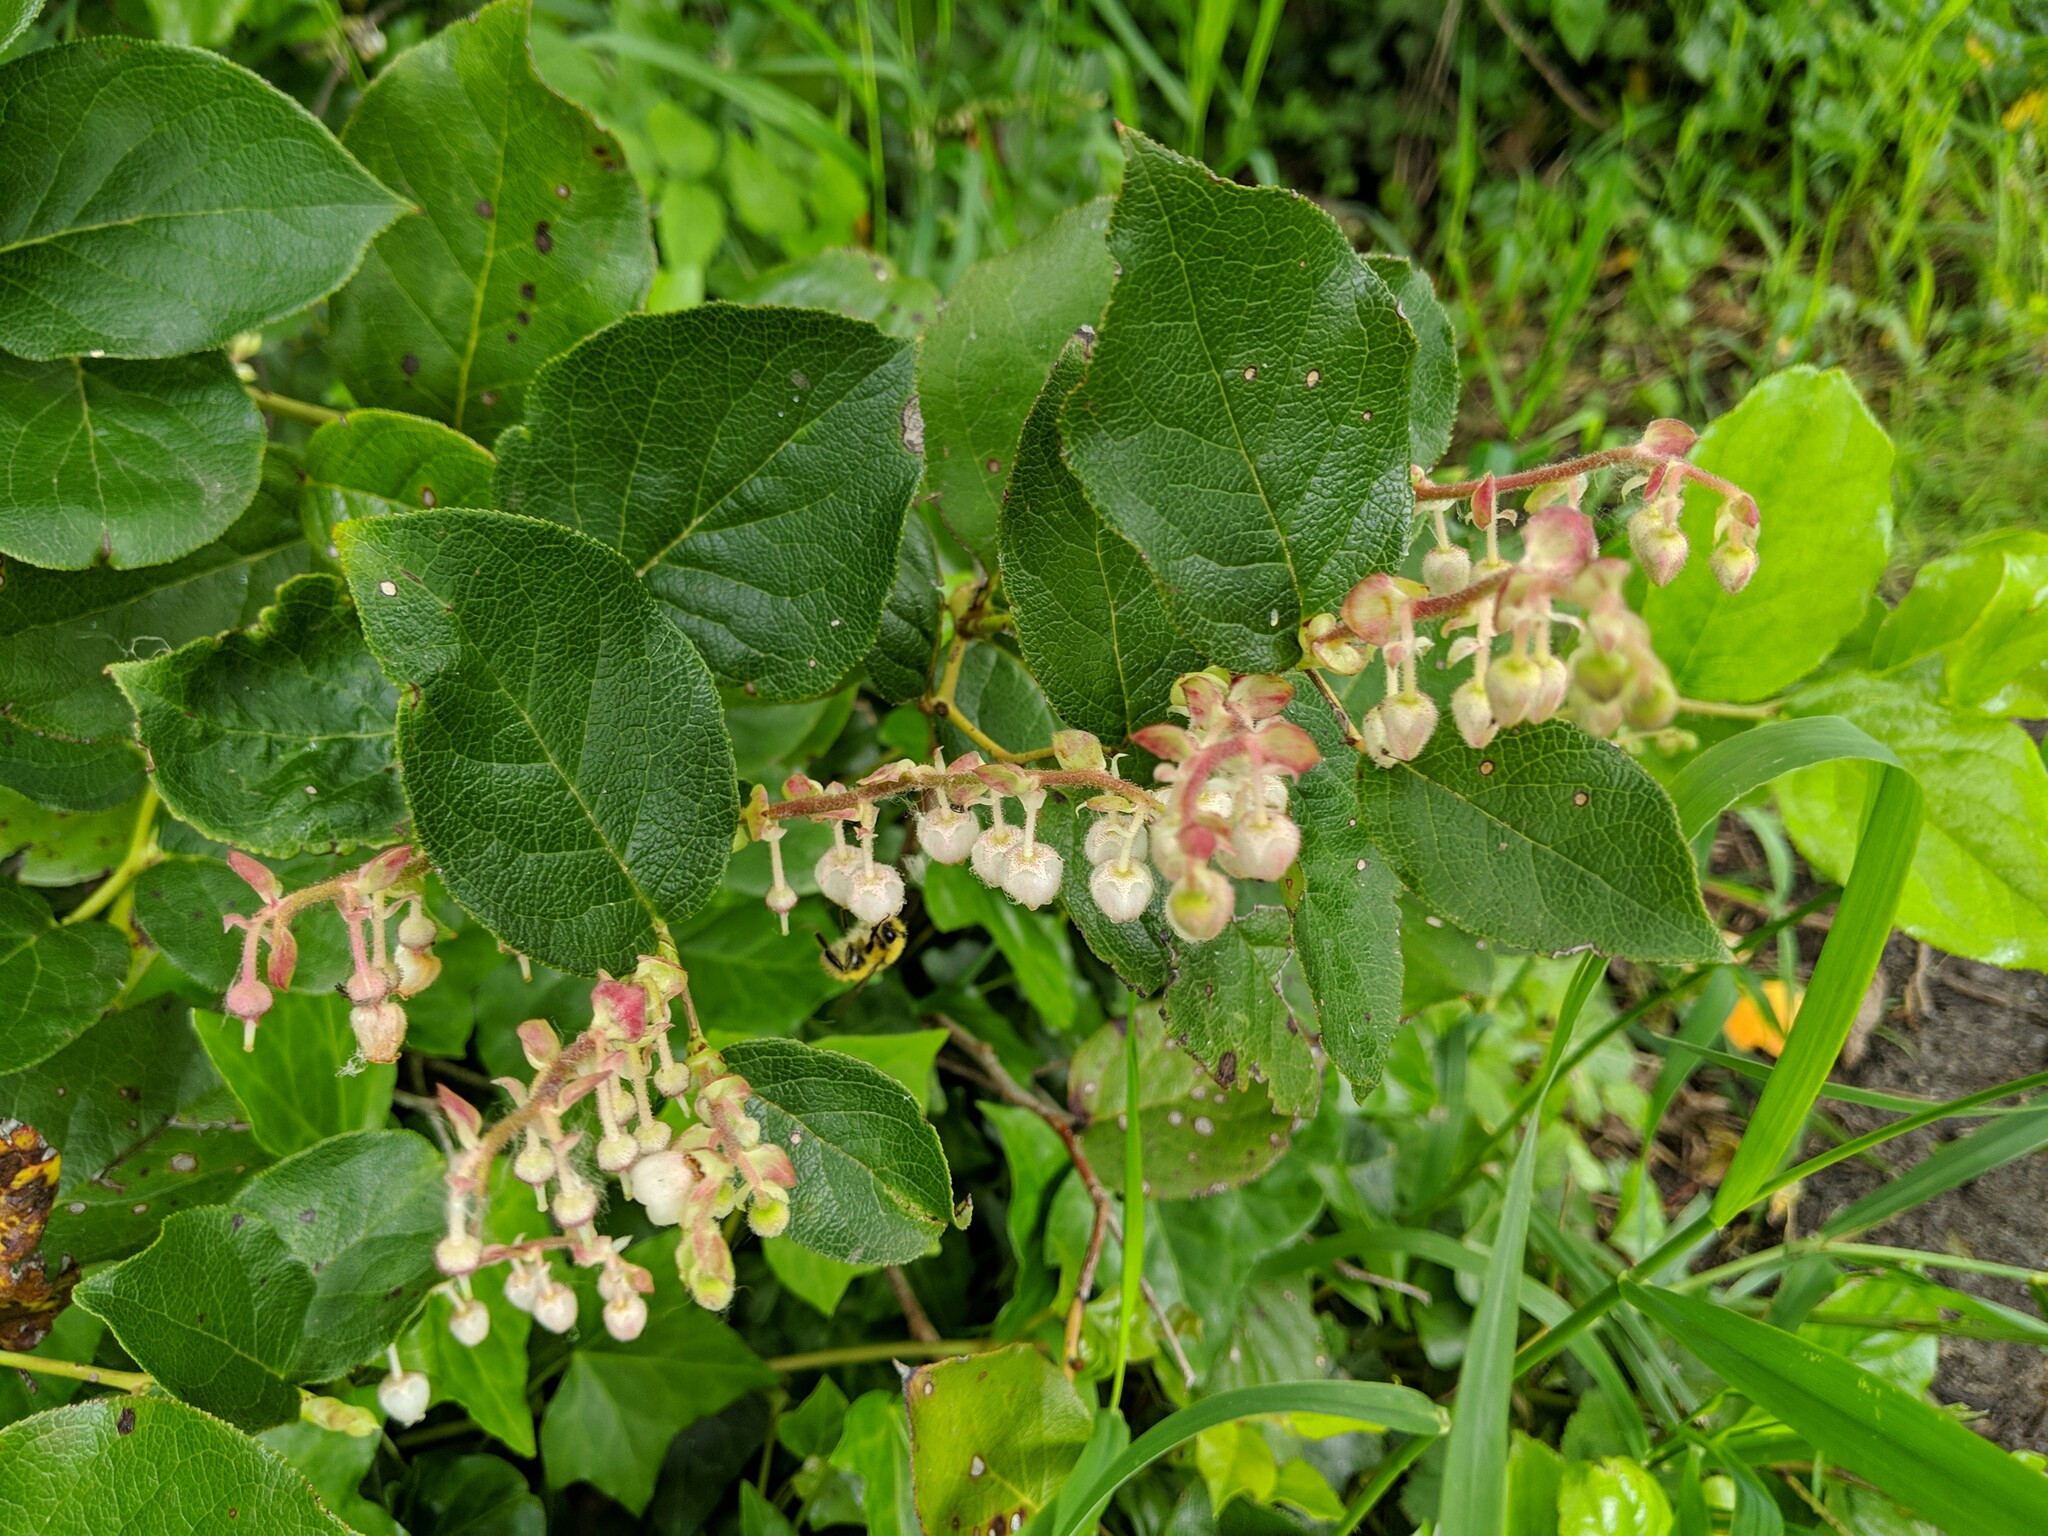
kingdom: Plantae
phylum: Tracheophyta
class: Magnoliopsida
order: Ericales
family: Ericaceae
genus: Gaultheria
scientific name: Gaultheria shallon
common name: Shallon
